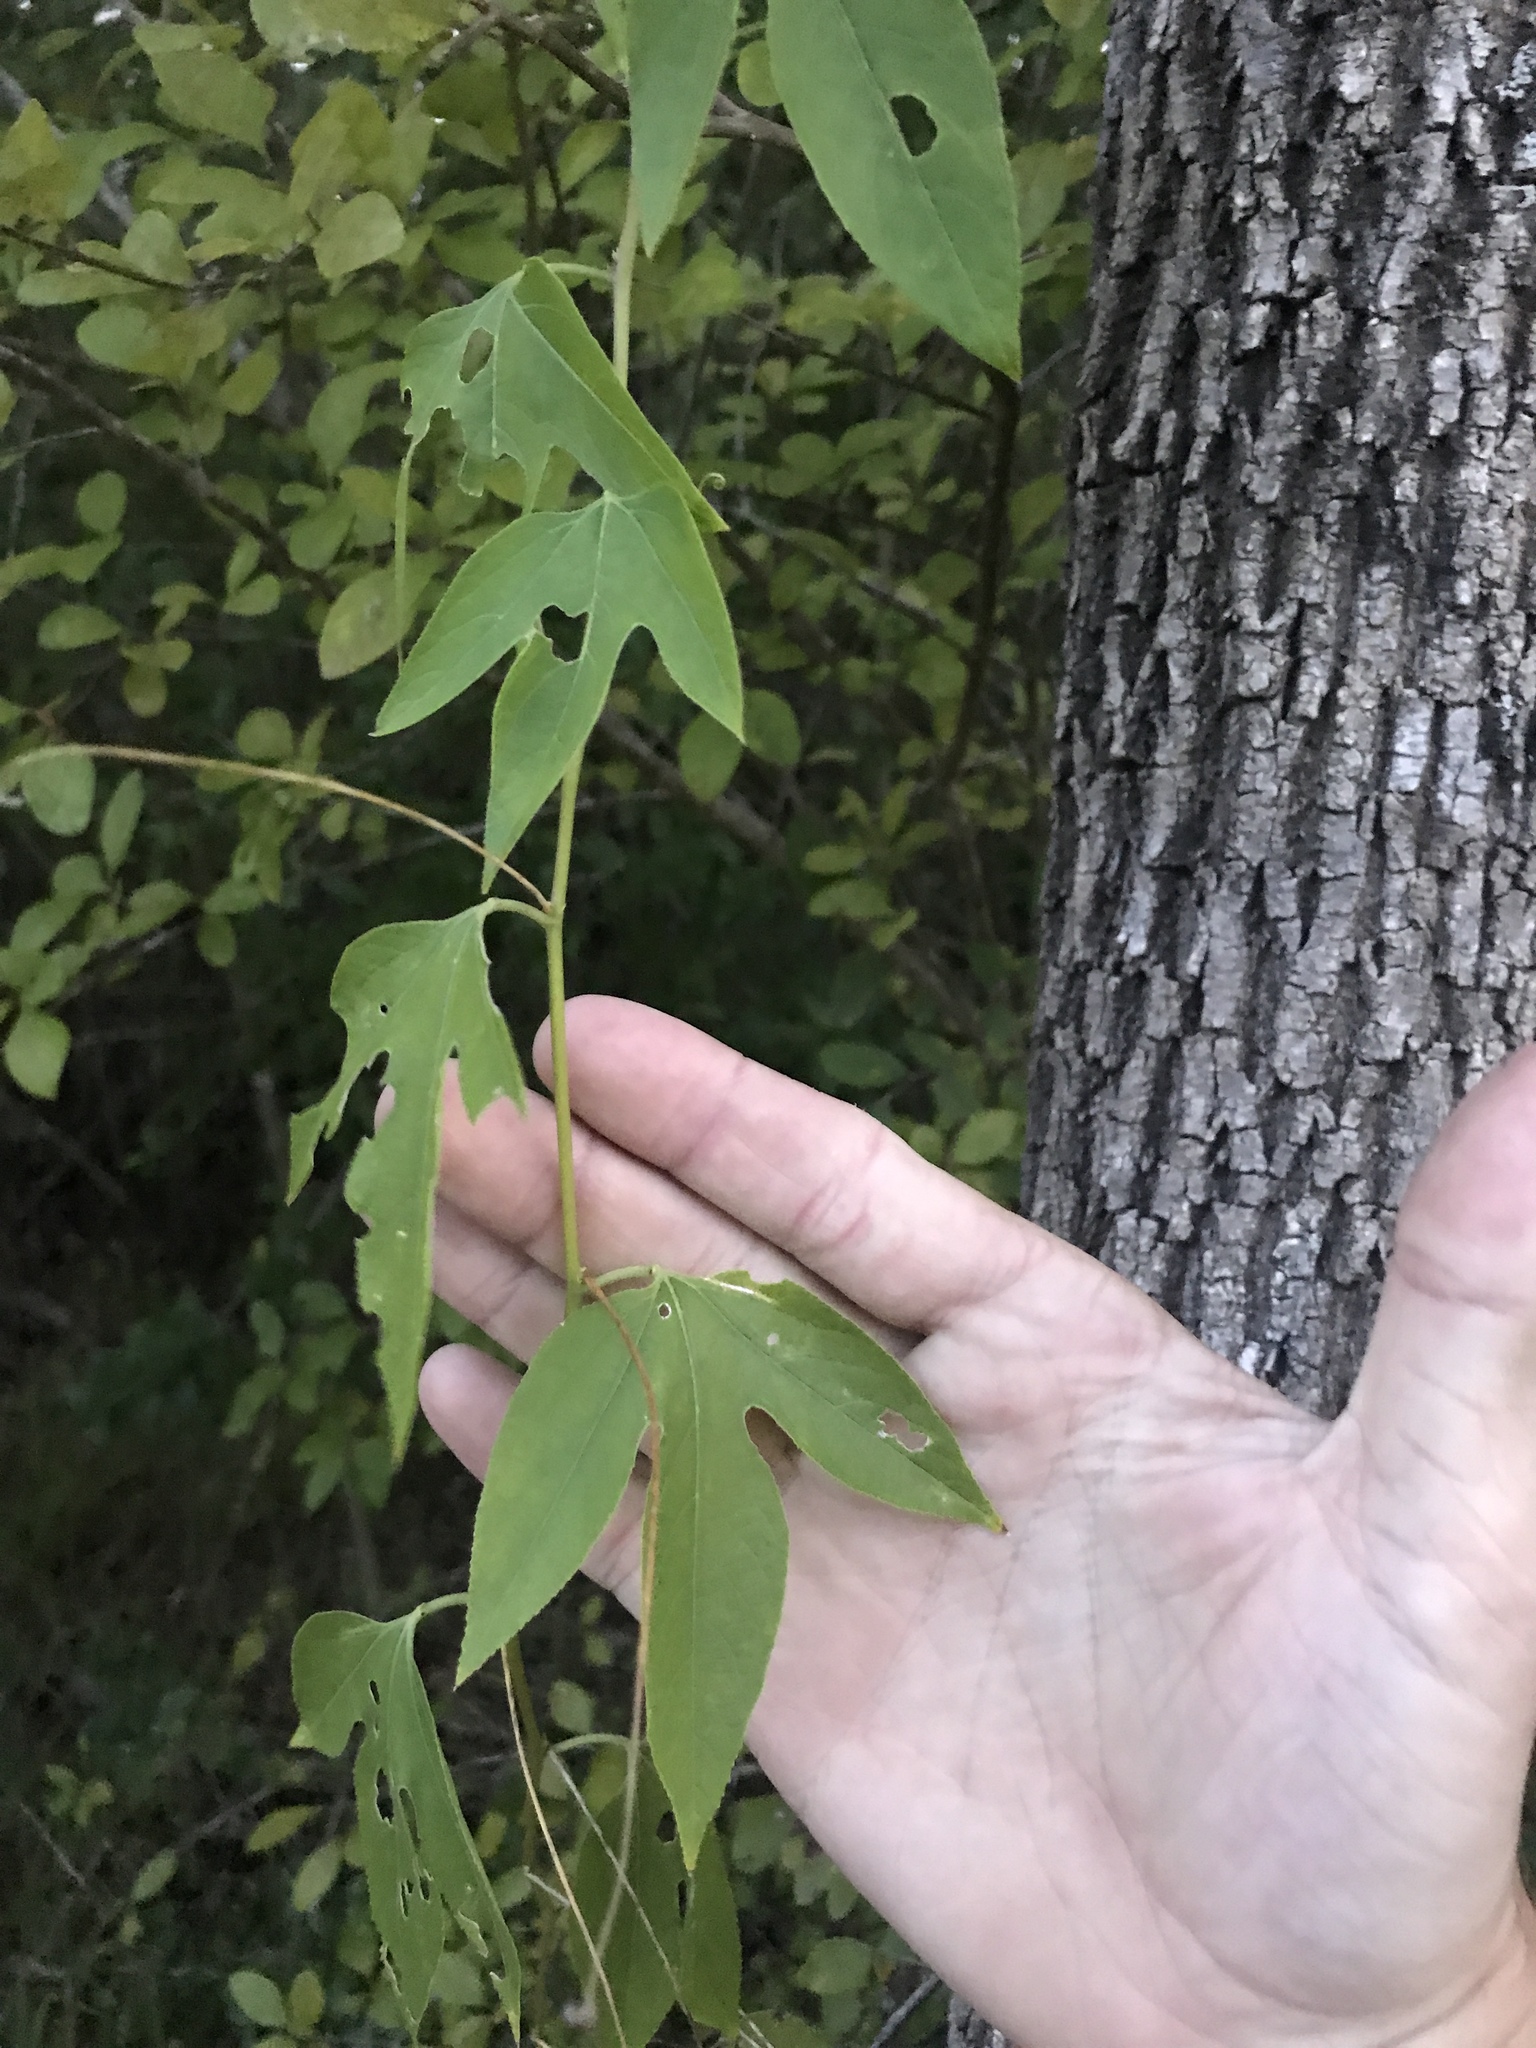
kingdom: Plantae
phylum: Tracheophyta
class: Magnoliopsida
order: Malpighiales
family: Passifloraceae
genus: Passiflora
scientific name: Passiflora incarnata
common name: Apricot-vine
